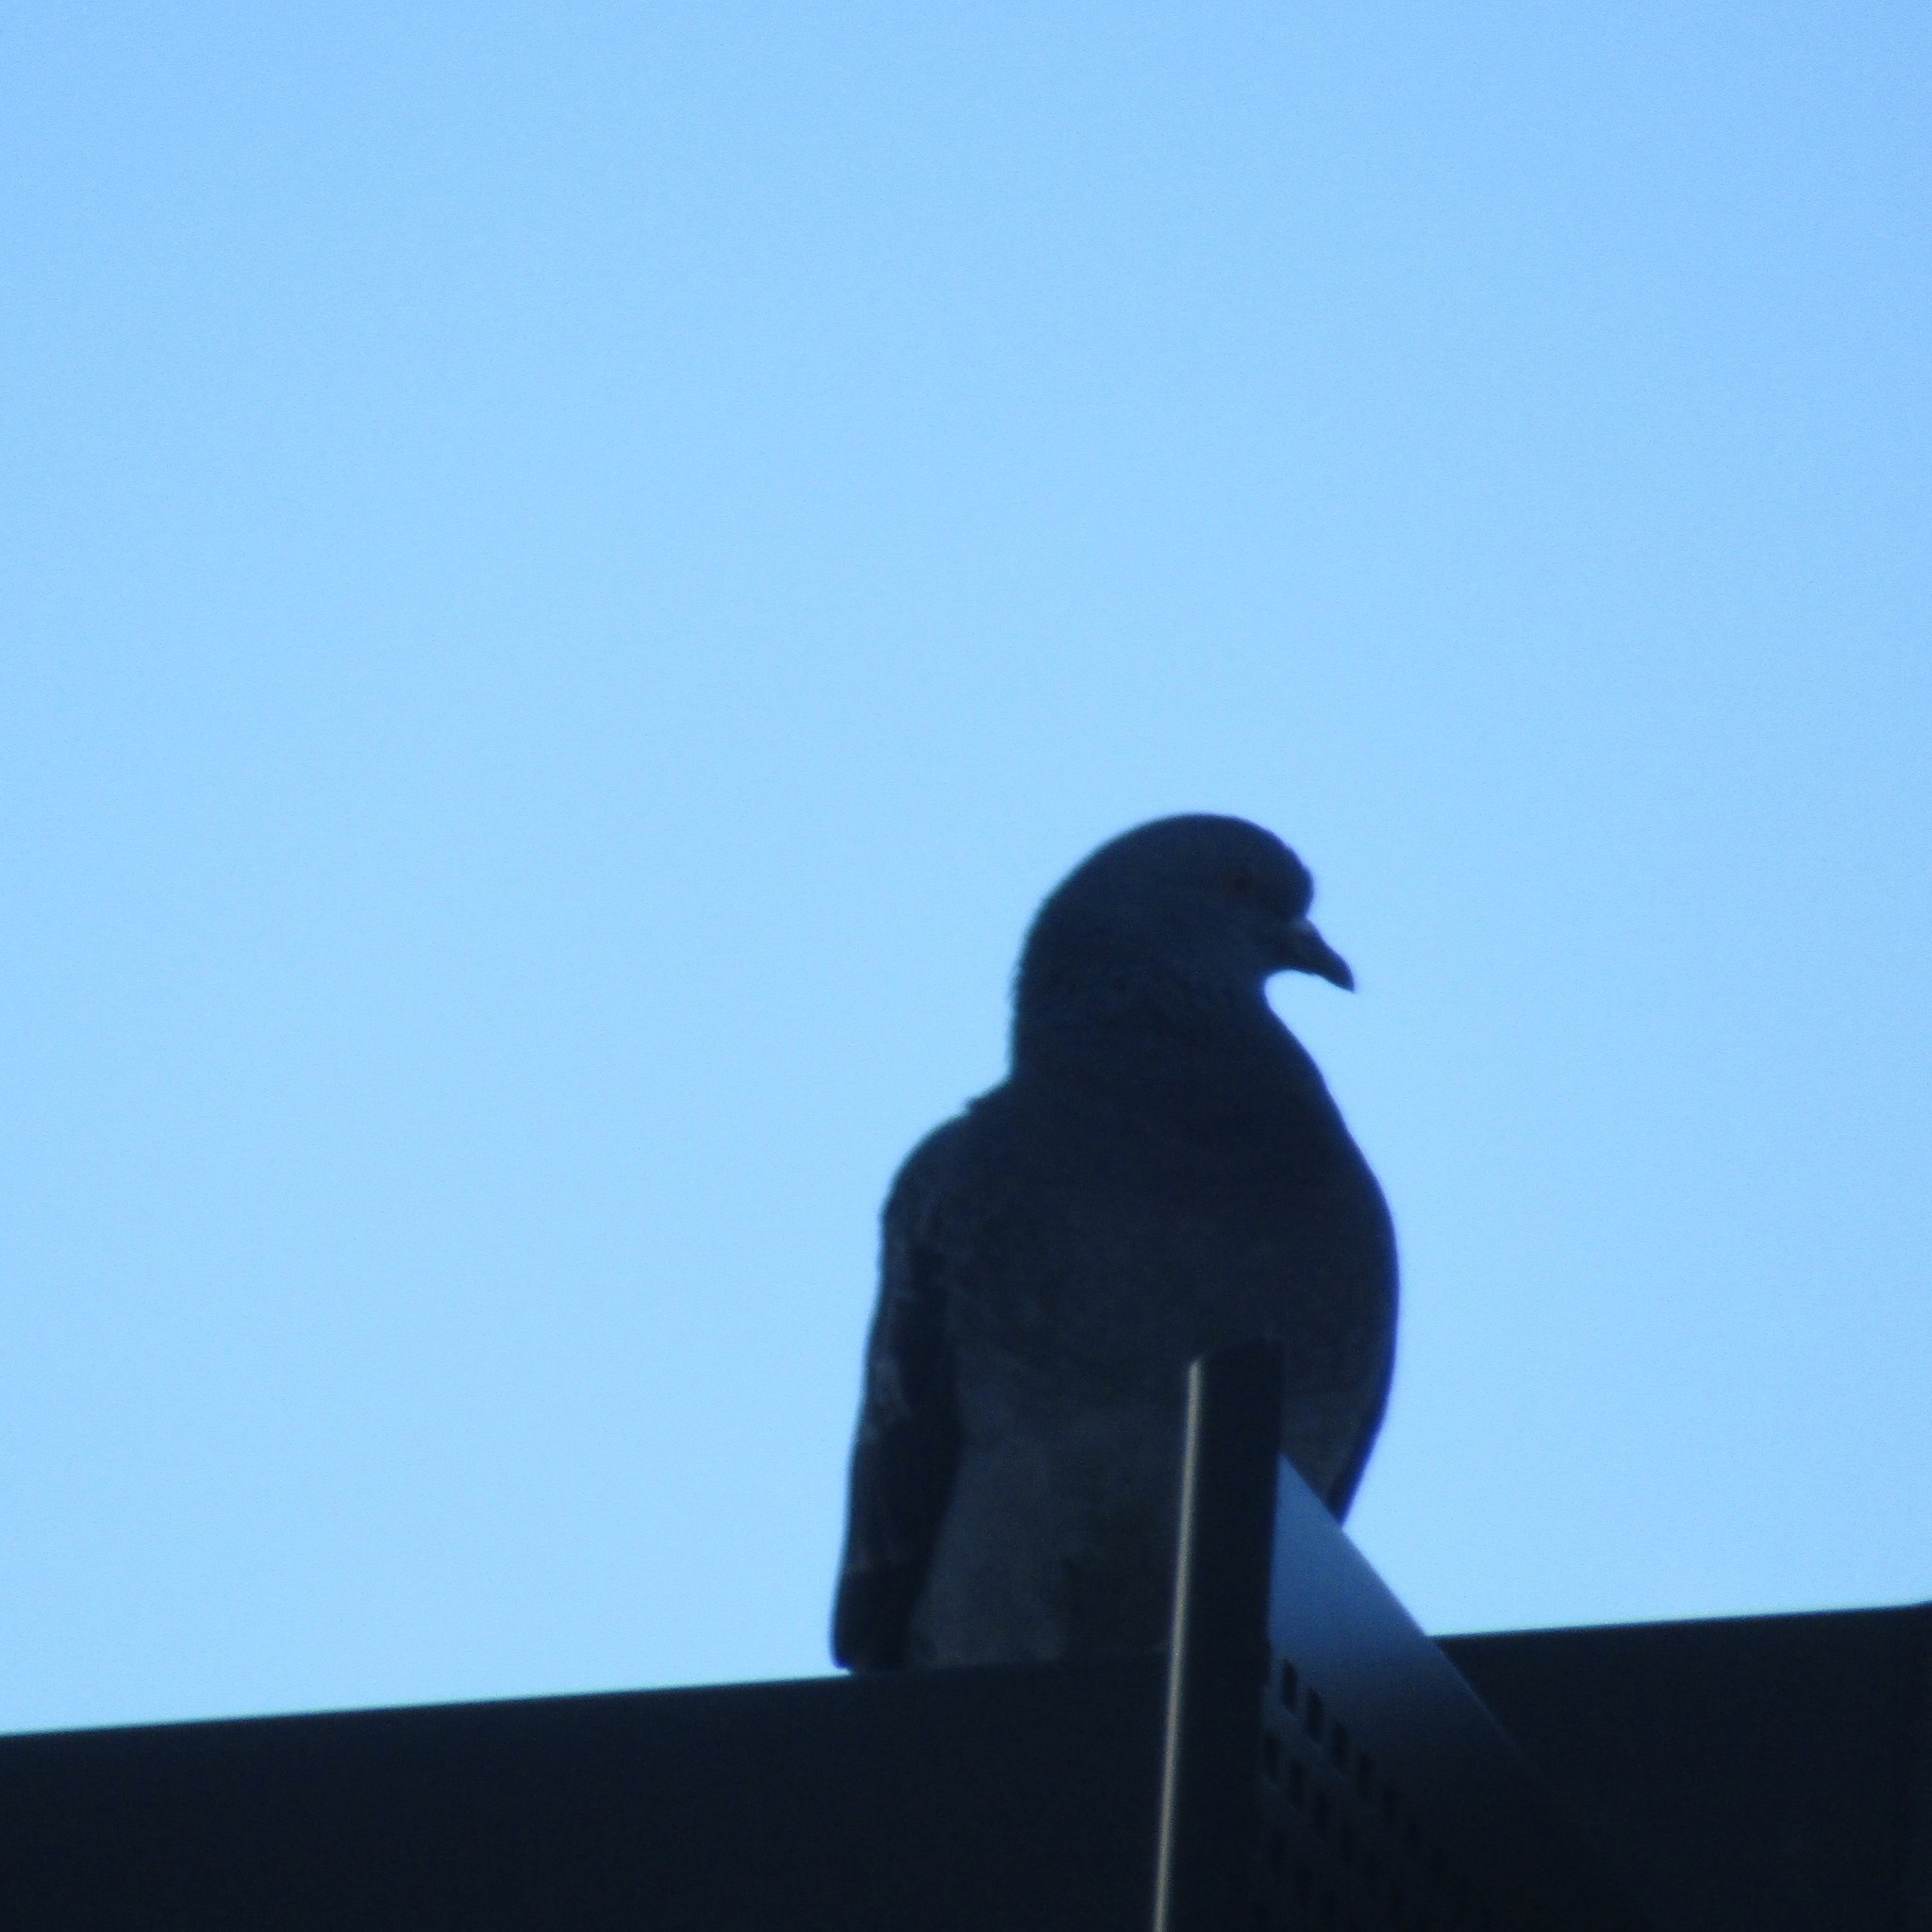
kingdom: Animalia
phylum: Chordata
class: Aves
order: Columbiformes
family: Columbidae
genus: Columba
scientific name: Columba livia
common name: Rock pigeon
